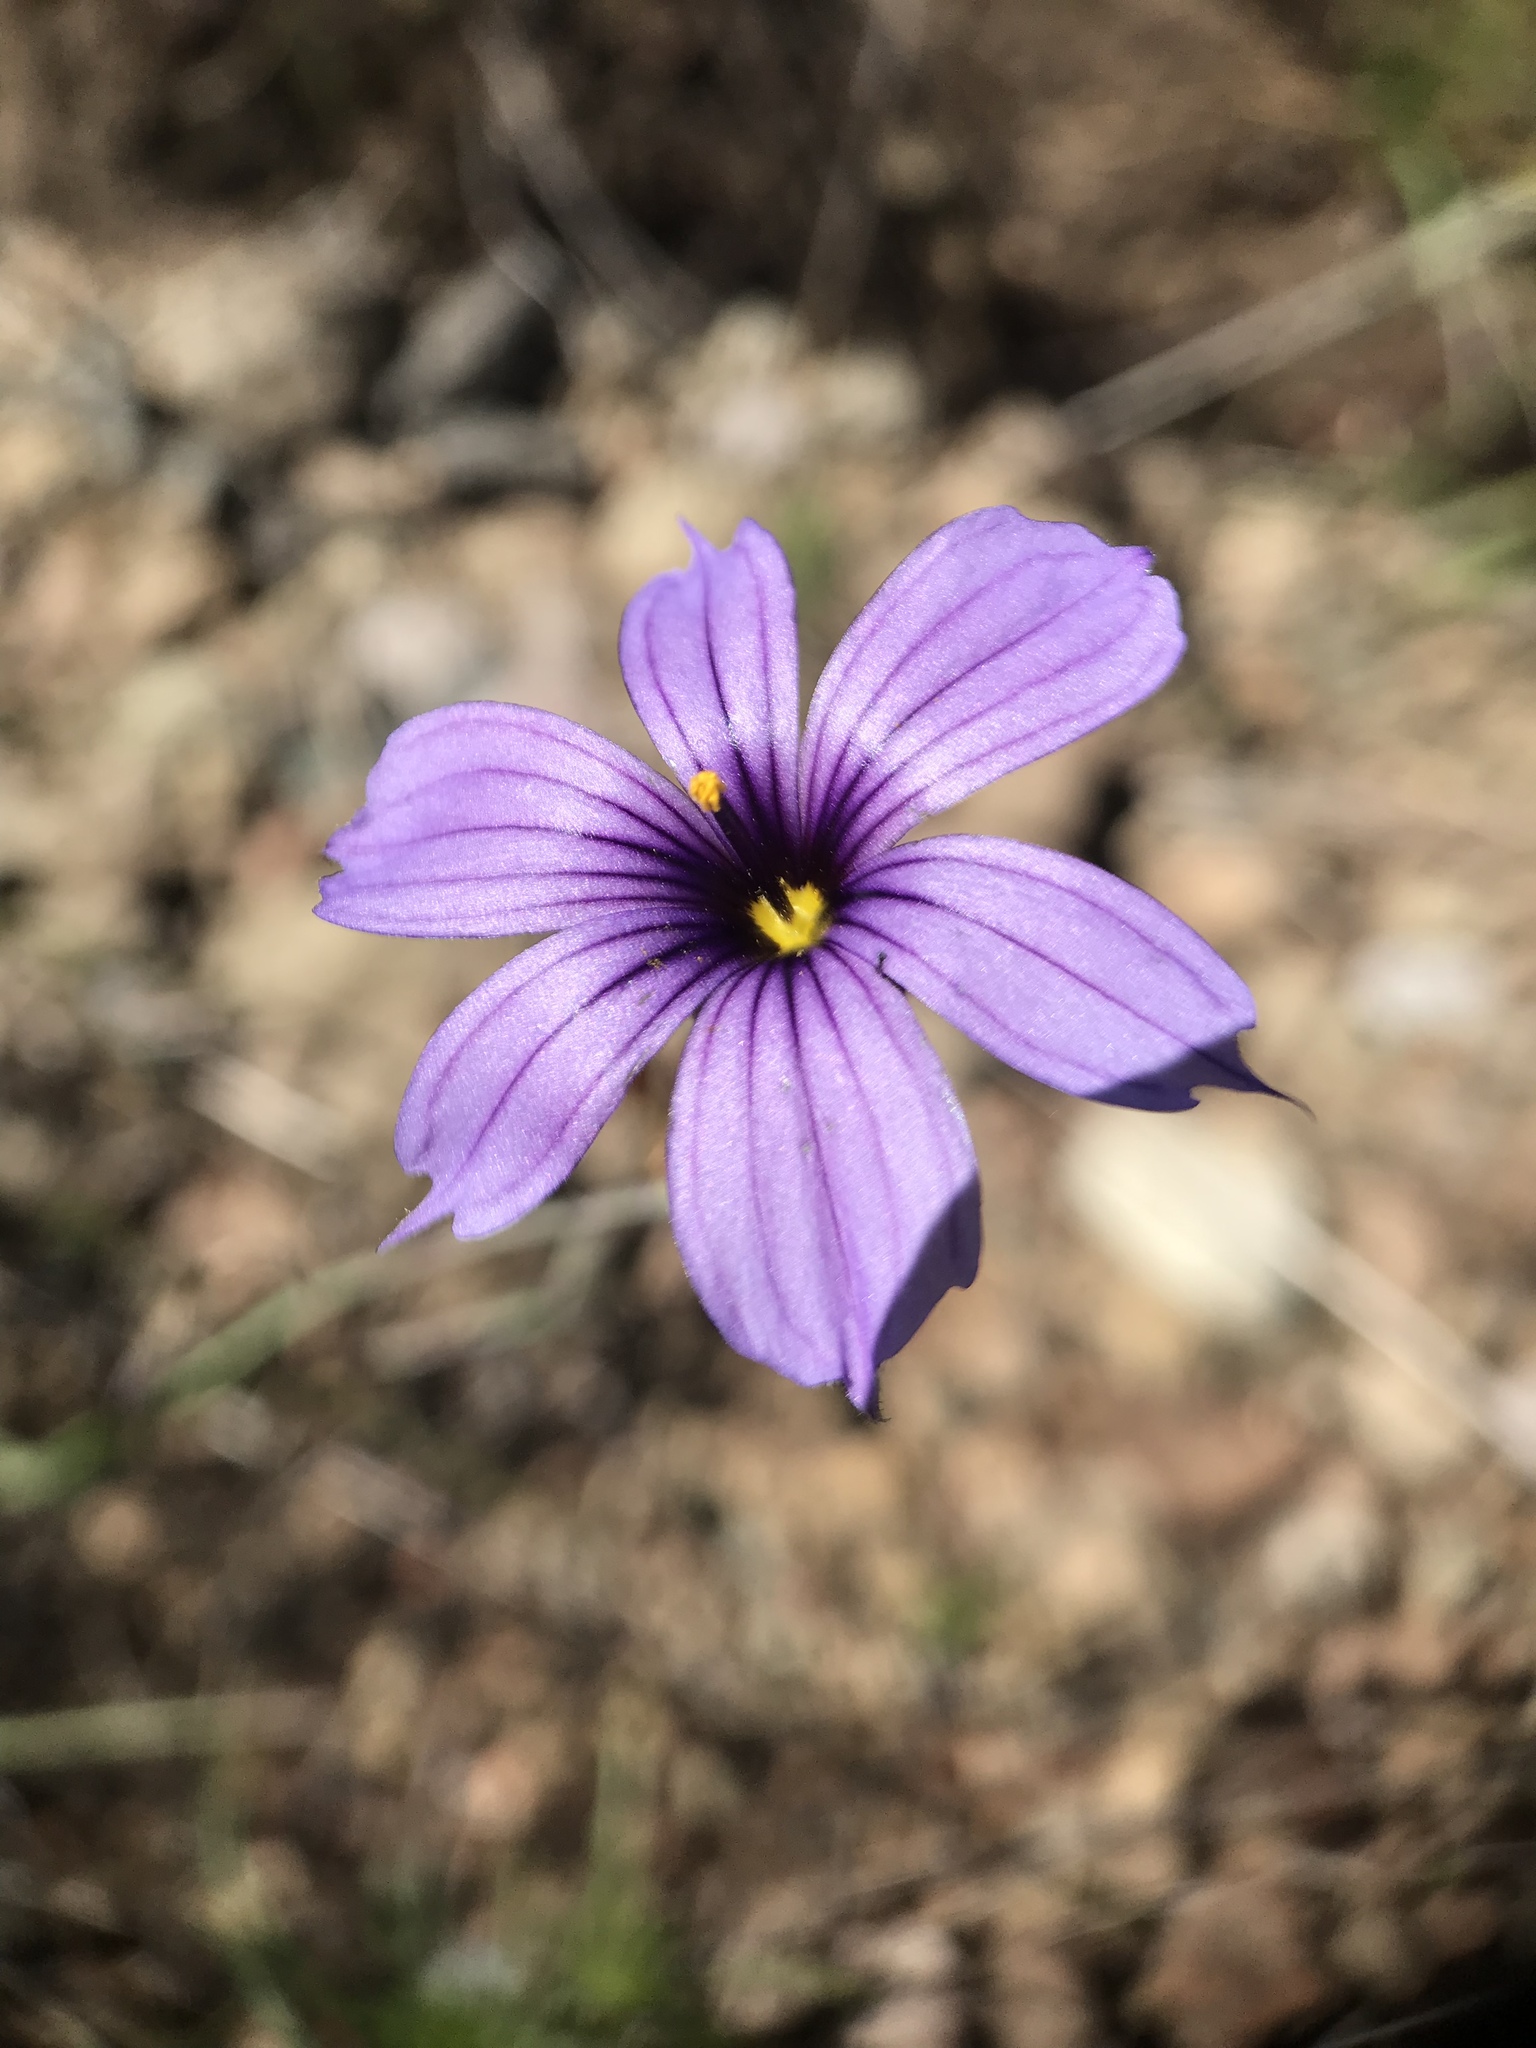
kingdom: Plantae
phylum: Tracheophyta
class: Liliopsida
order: Asparagales
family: Iridaceae
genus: Sisyrinchium
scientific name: Sisyrinchium bellum
